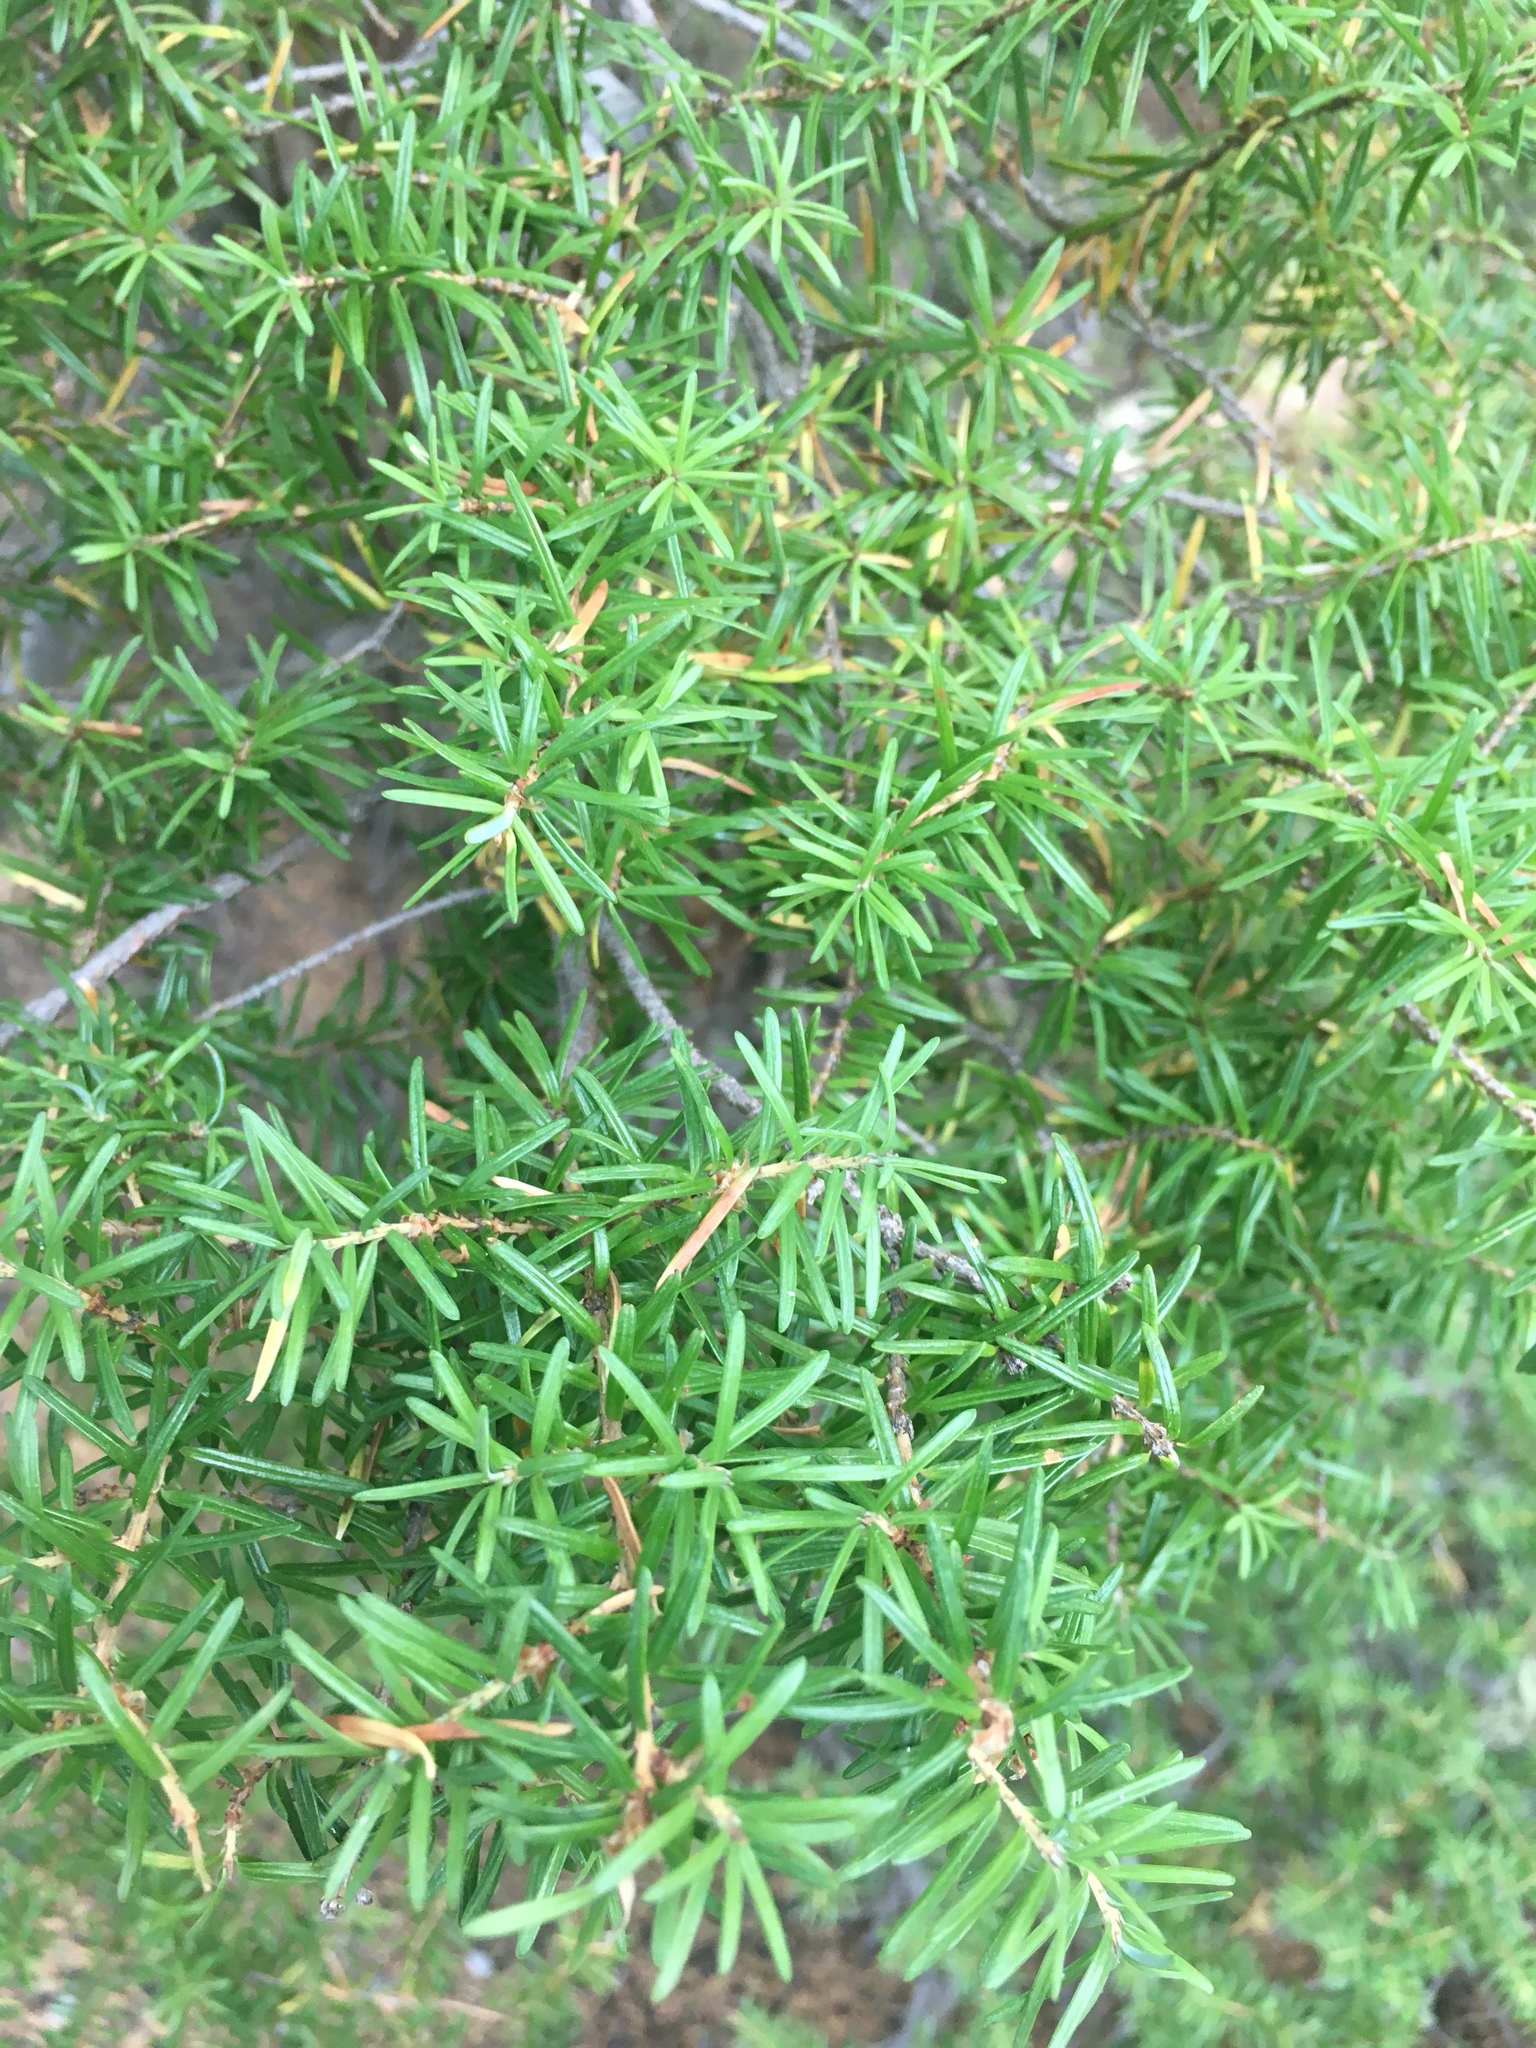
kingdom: Plantae
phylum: Tracheophyta
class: Pinopsida
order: Pinales
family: Pinaceae
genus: Tsuga
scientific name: Tsuga mertensiana
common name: Mountain hemlock
